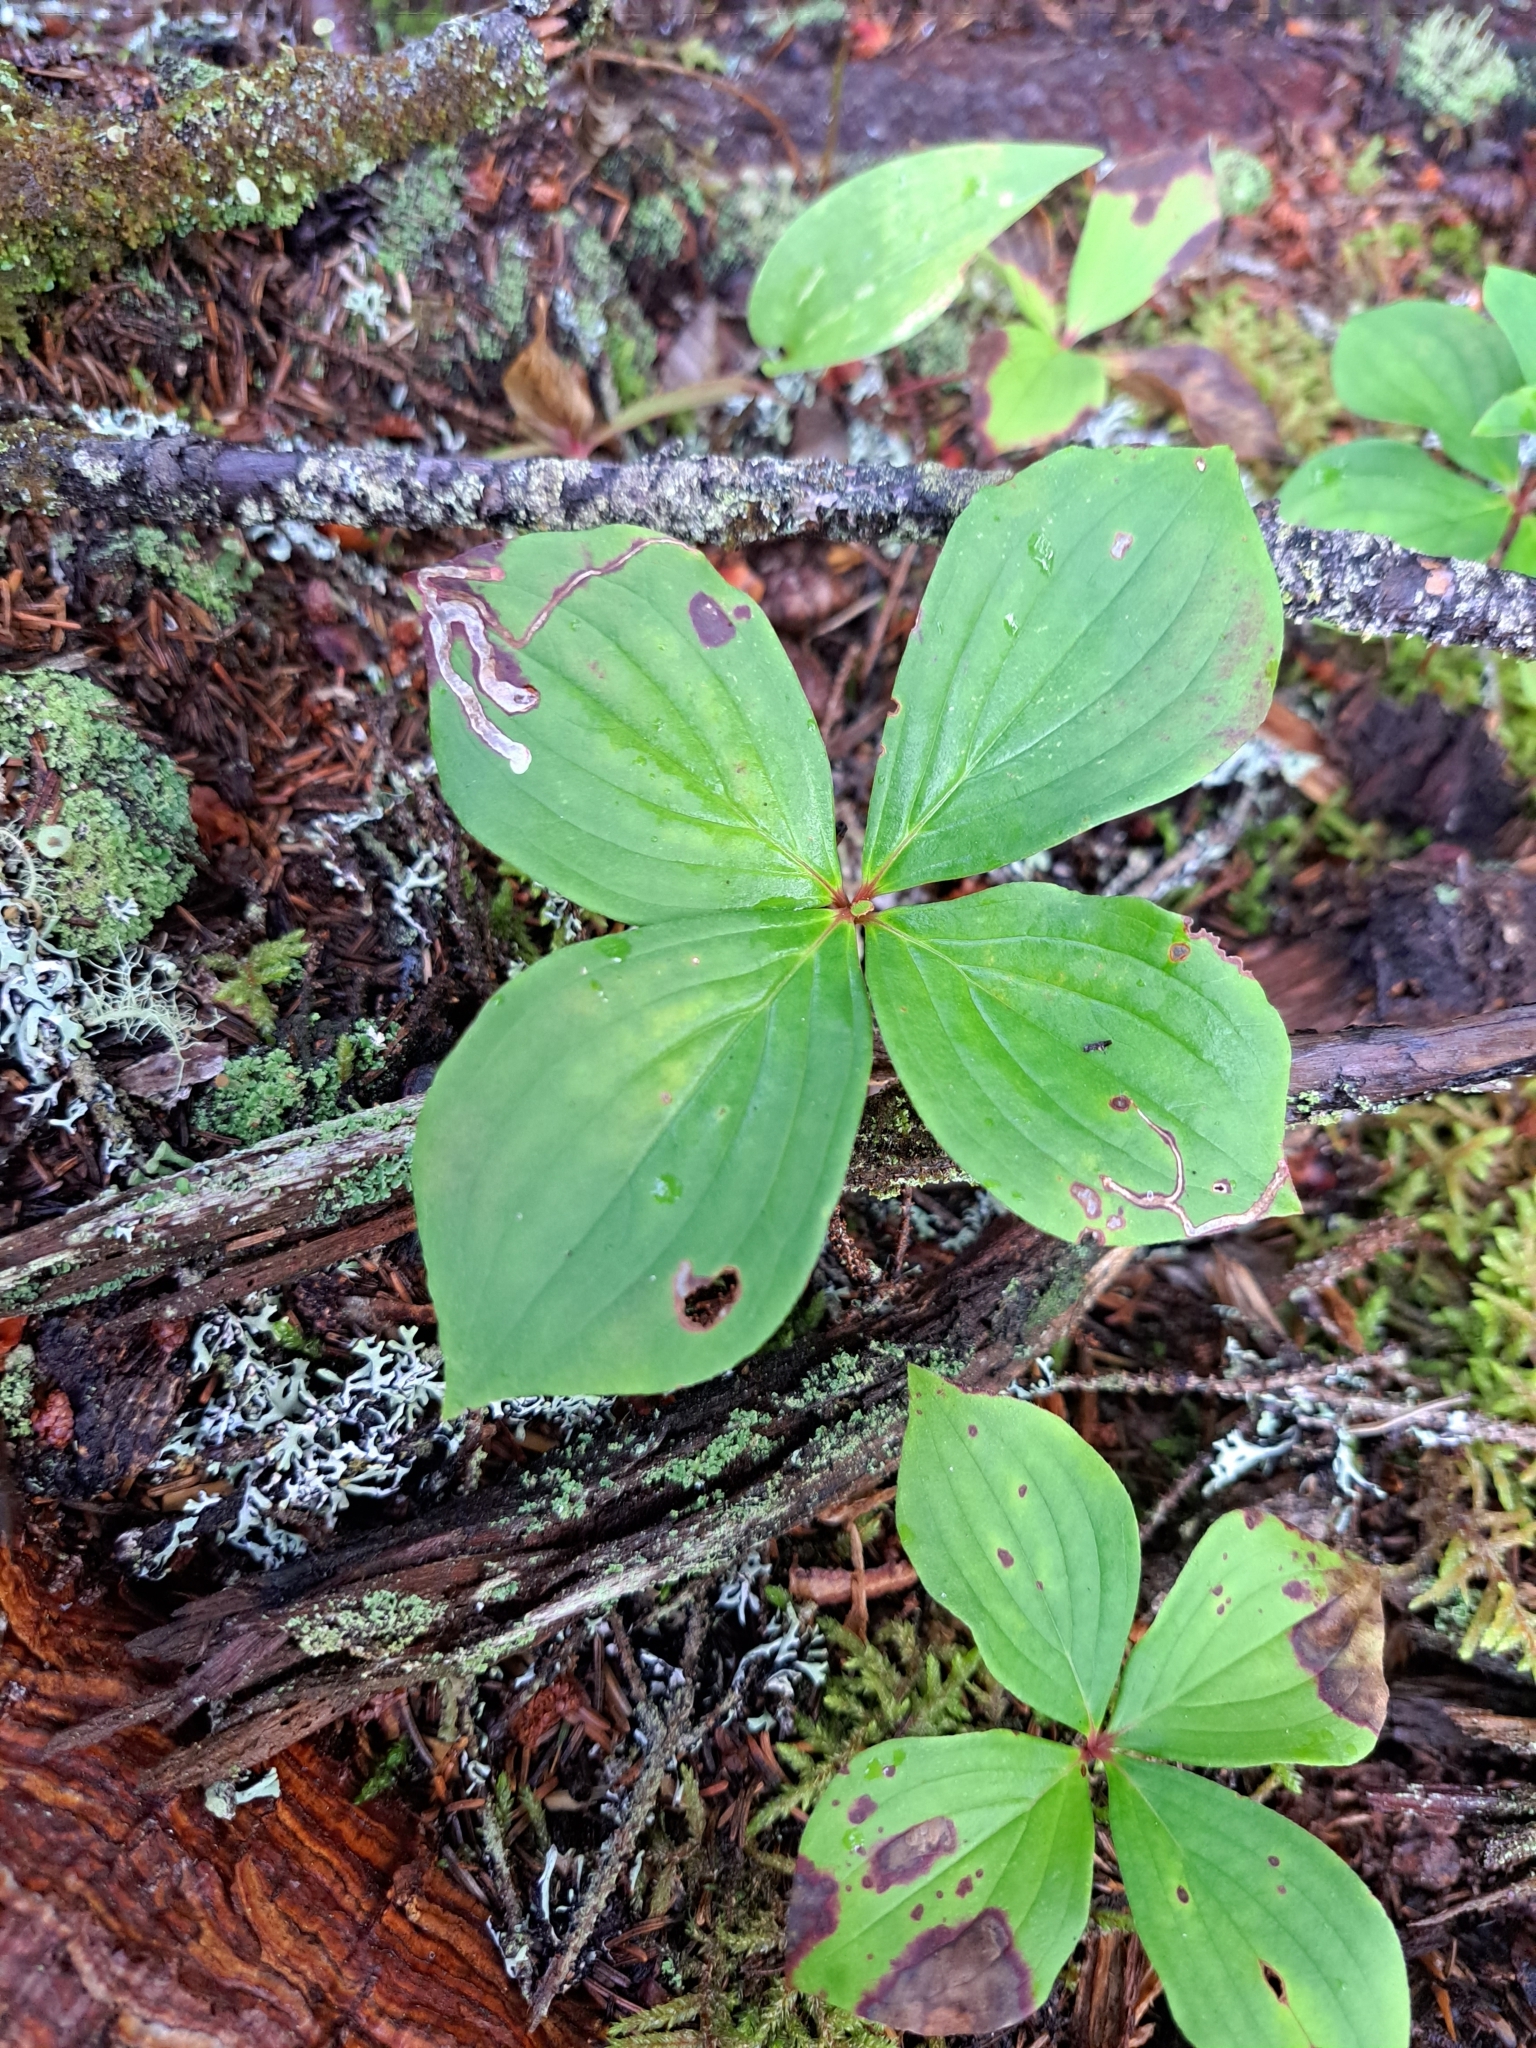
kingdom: Animalia
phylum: Arthropoda
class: Insecta
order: Diptera
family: Agromyzidae
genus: Phytomyza
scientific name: Phytomyza agromyzina
